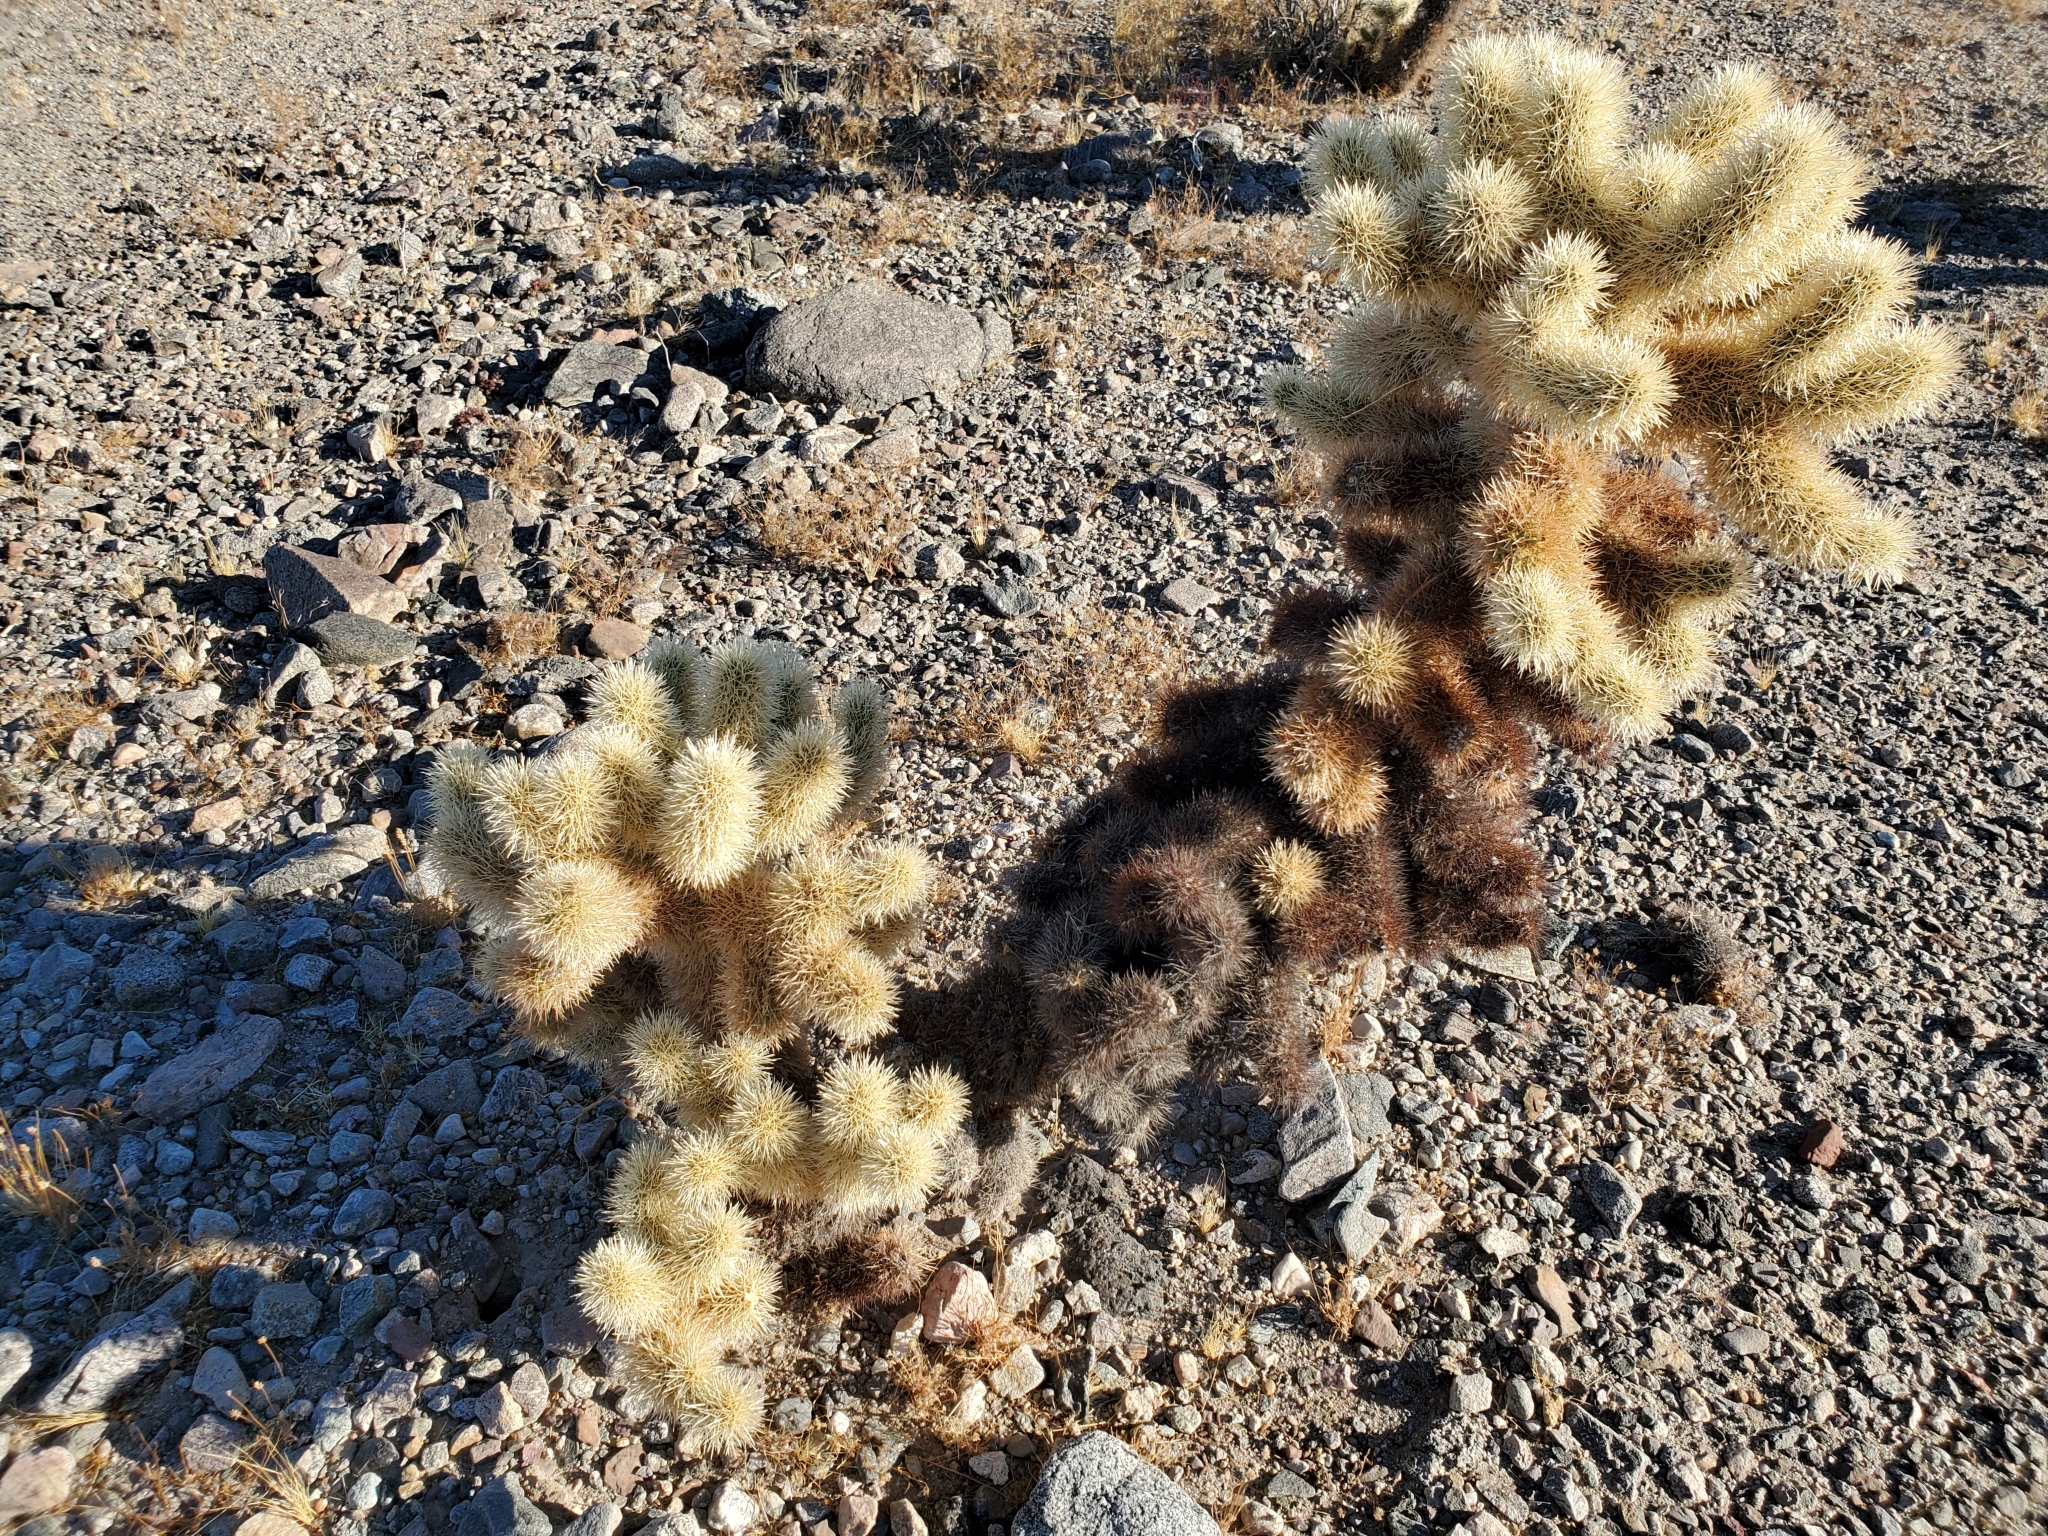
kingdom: Plantae
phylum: Tracheophyta
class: Magnoliopsida
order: Caryophyllales
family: Cactaceae
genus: Cylindropuntia
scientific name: Cylindropuntia fosbergii
